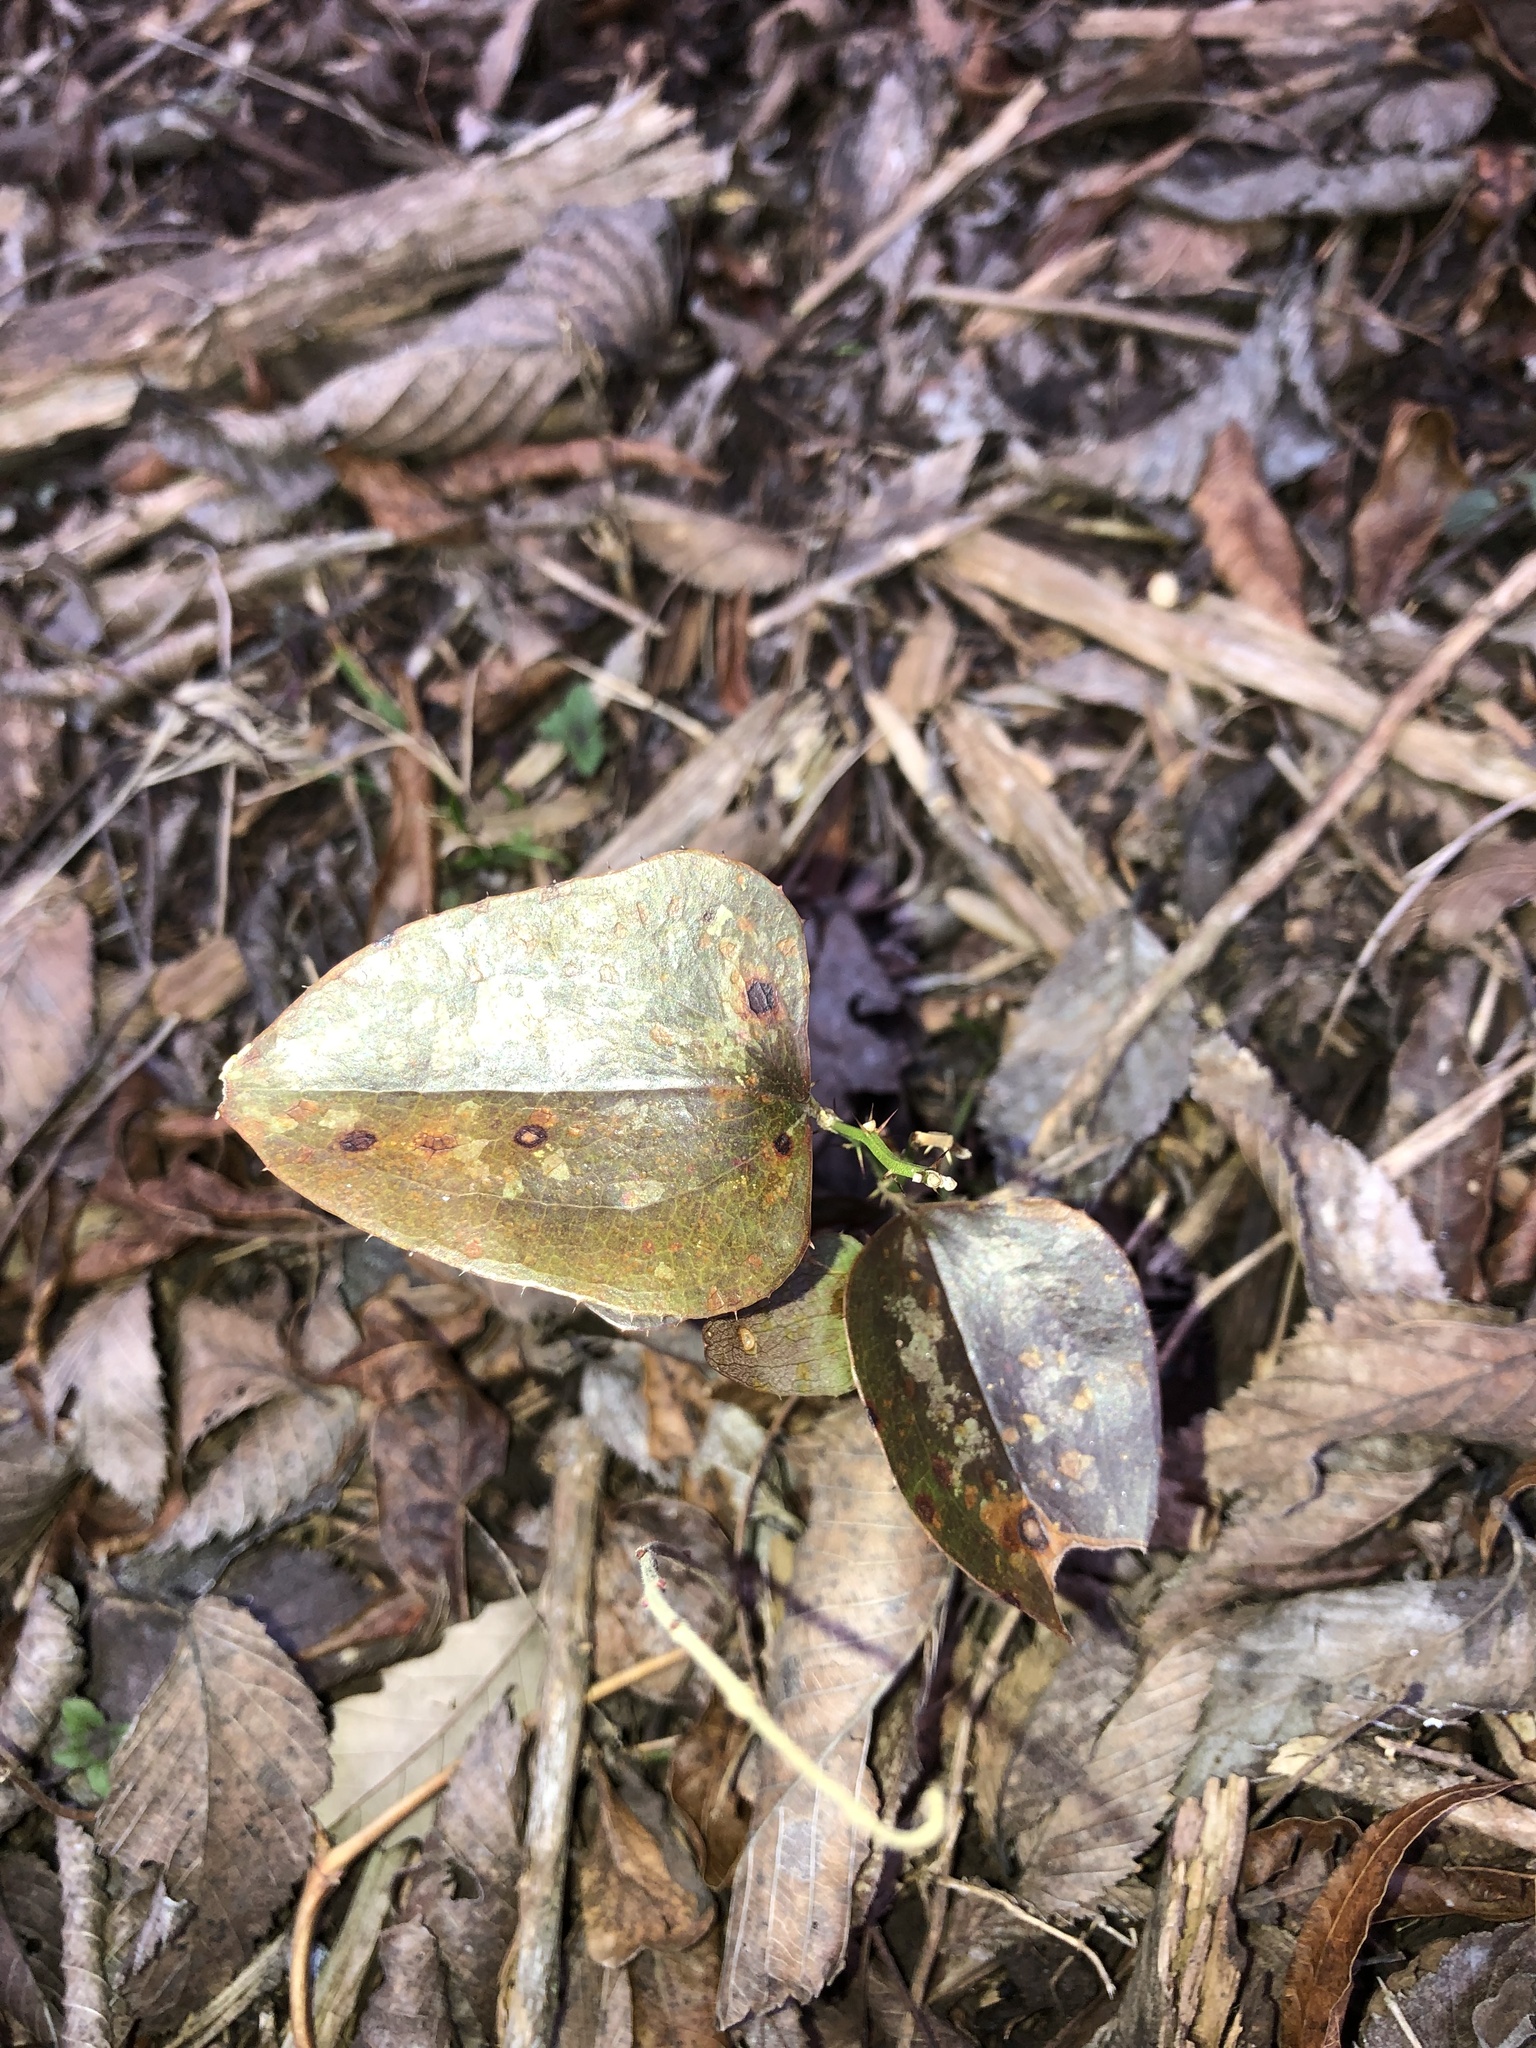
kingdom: Plantae
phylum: Tracheophyta
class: Liliopsida
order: Liliales
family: Smilacaceae
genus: Smilax
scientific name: Smilax bona-nox
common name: Catbrier
